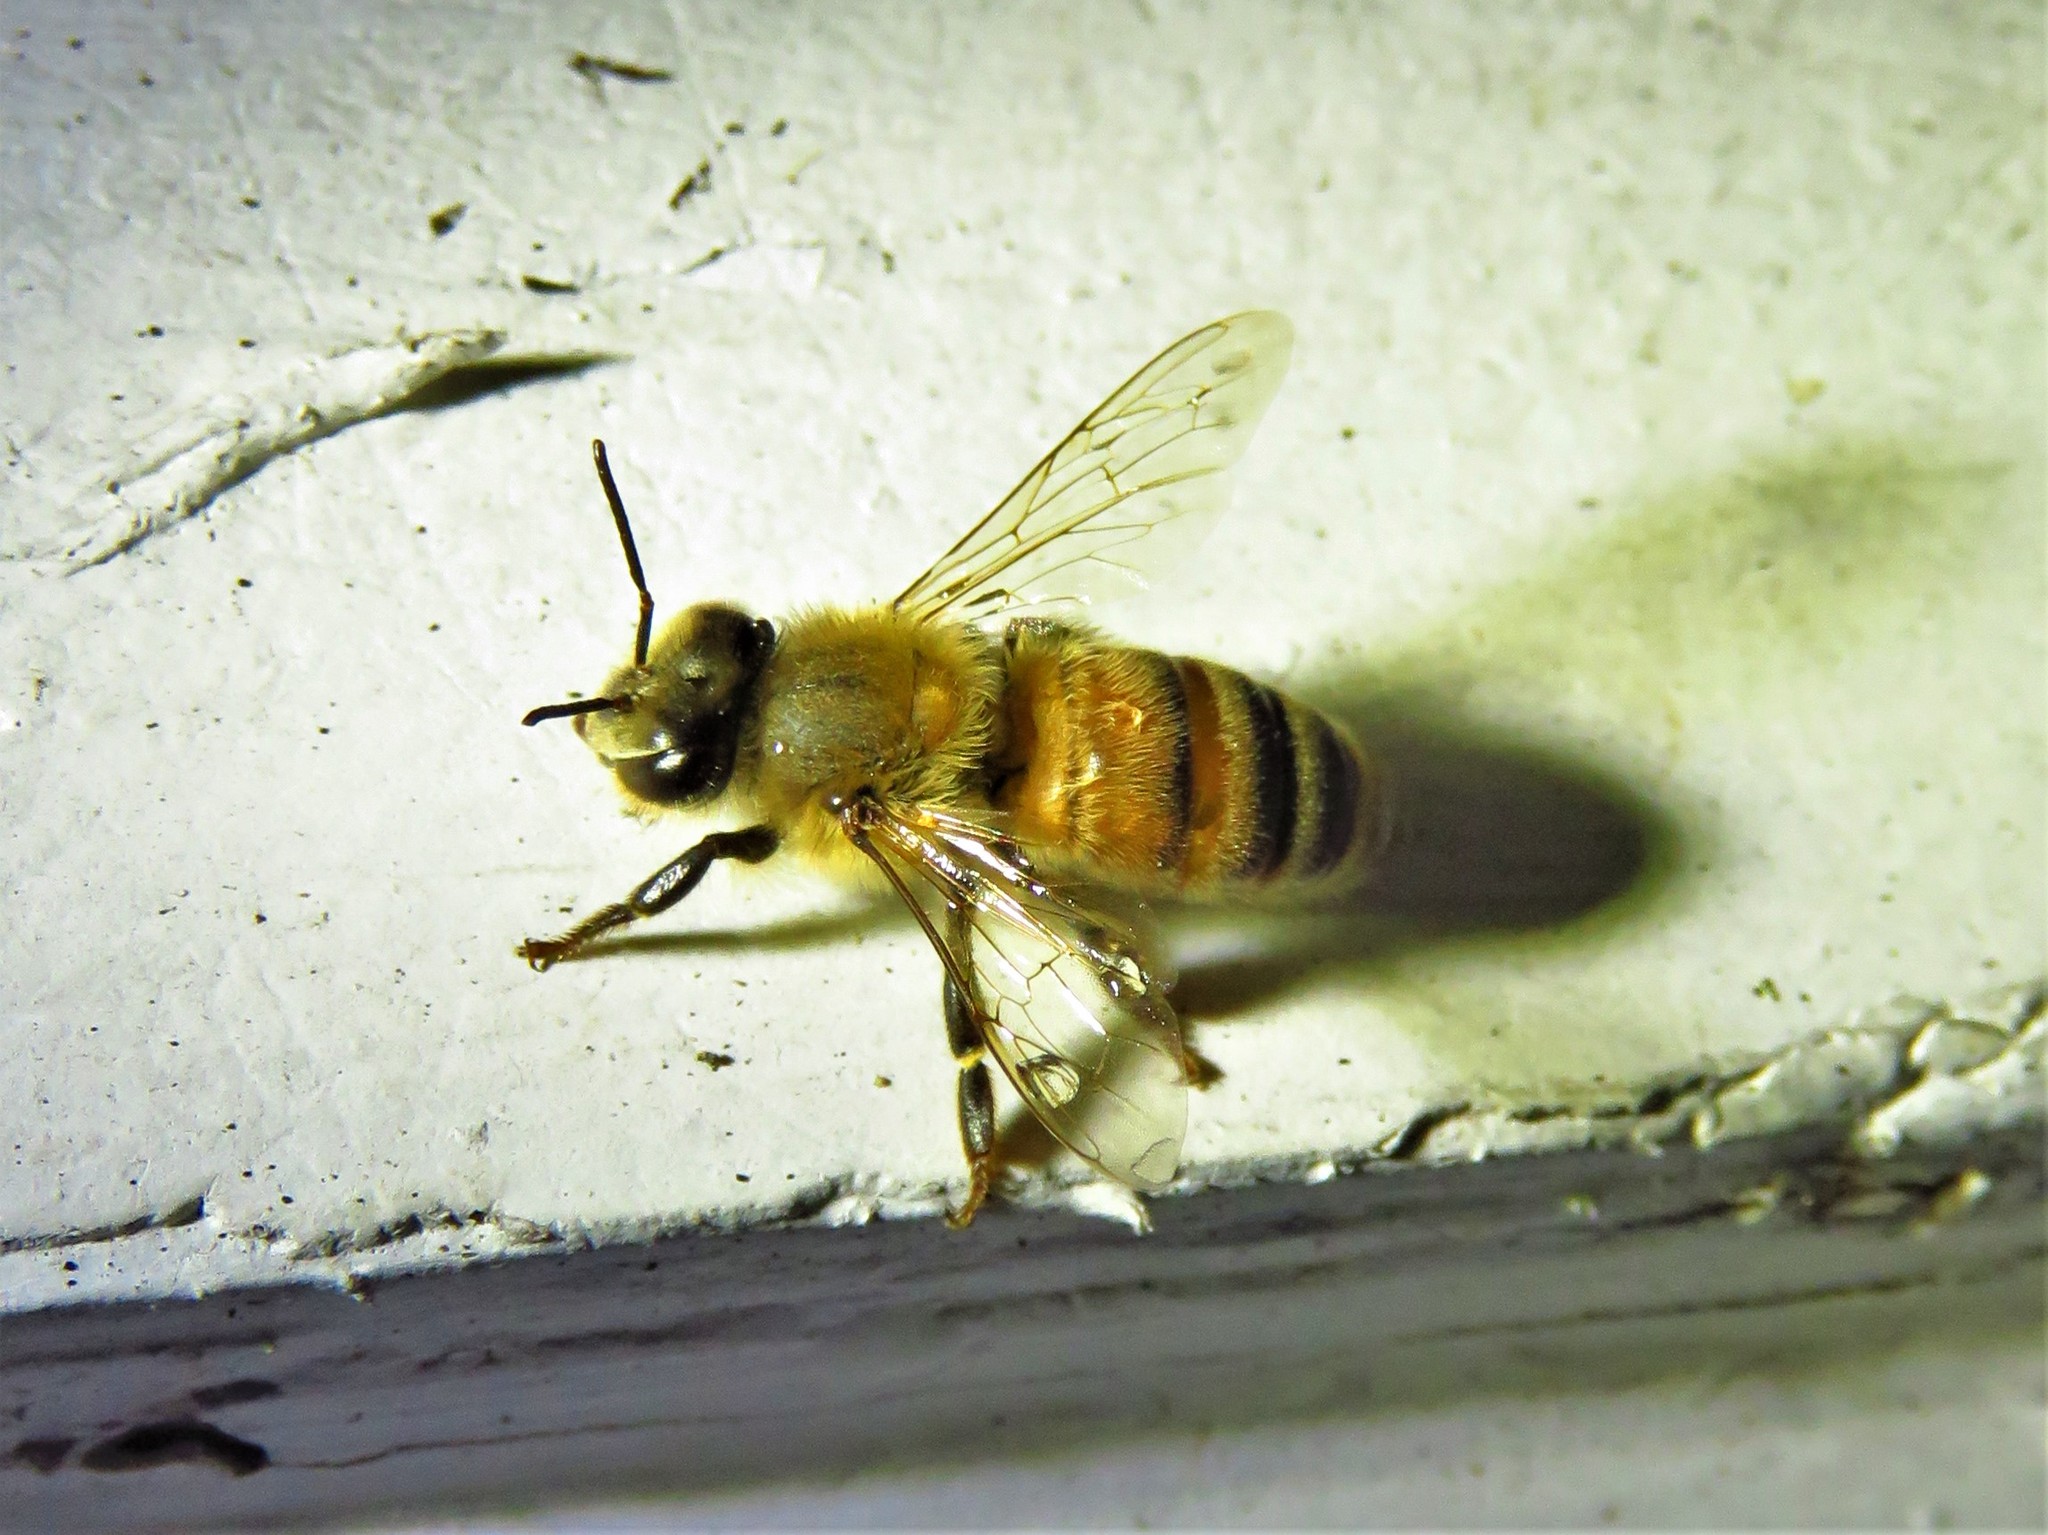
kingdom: Animalia
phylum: Arthropoda
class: Insecta
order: Hymenoptera
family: Apidae
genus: Apis
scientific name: Apis mellifera
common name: Honey bee
